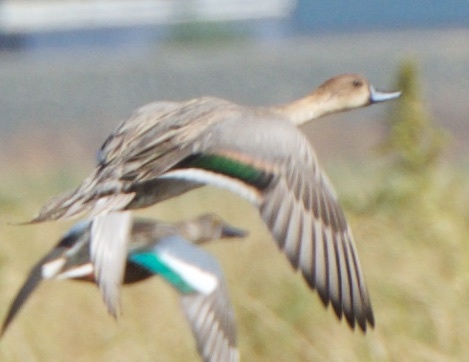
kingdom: Animalia
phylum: Chordata
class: Aves
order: Anseriformes
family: Anatidae
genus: Anas
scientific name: Anas acuta
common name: Northern pintail
